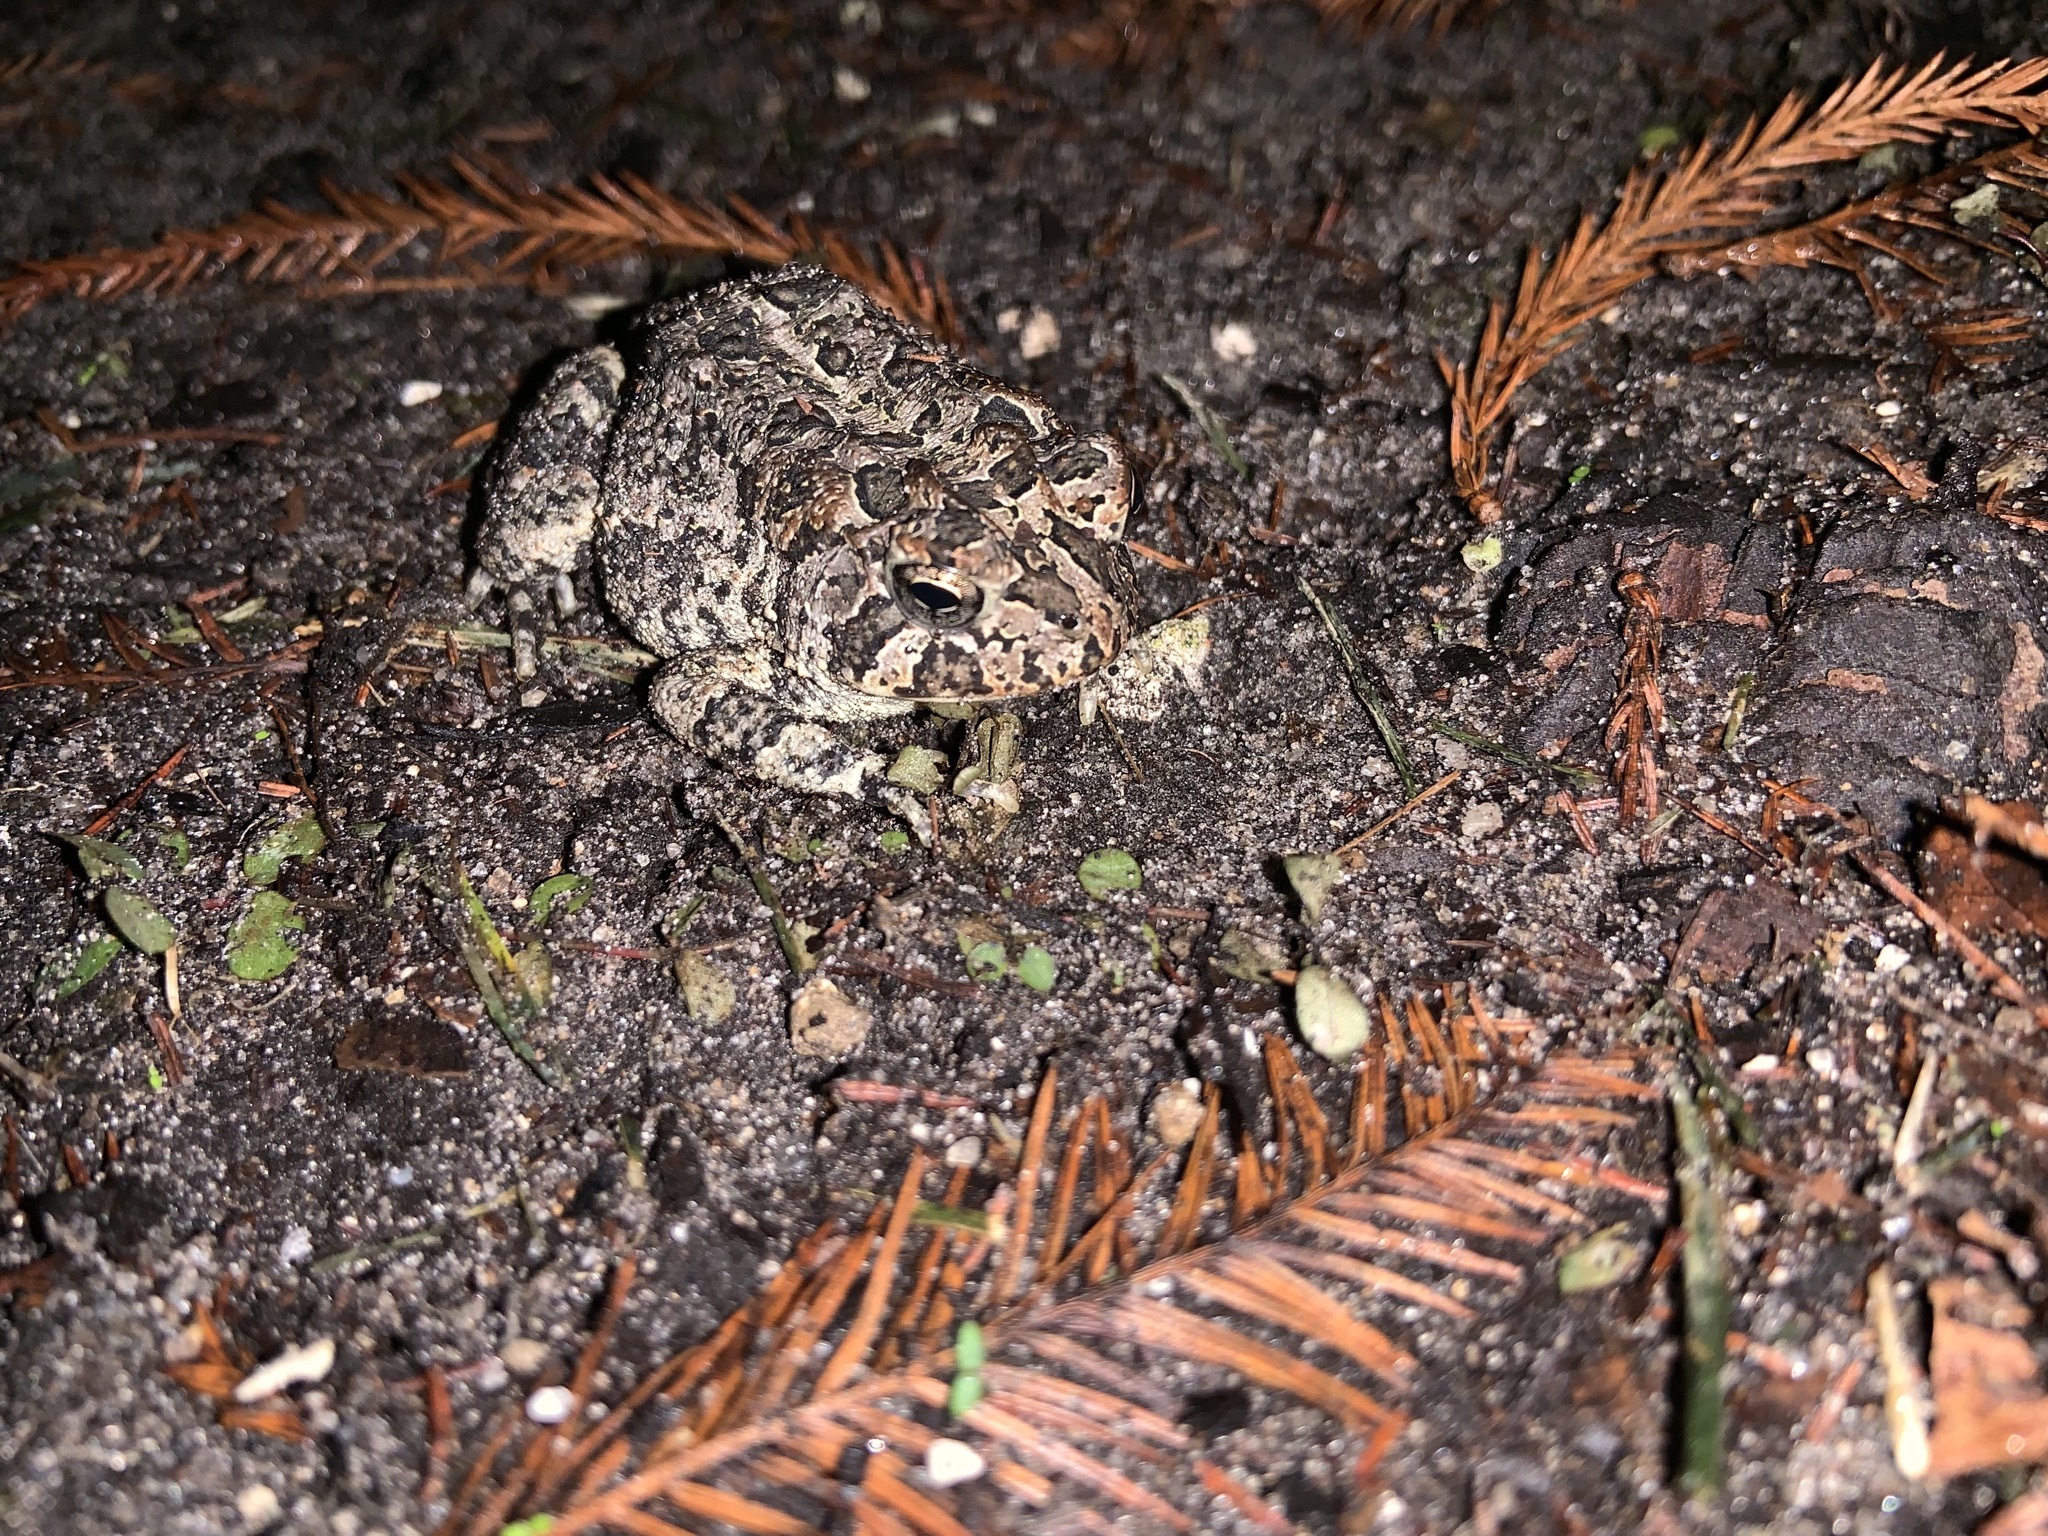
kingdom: Animalia
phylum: Chordata
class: Amphibia
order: Anura
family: Bufonidae
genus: Anaxyrus
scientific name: Anaxyrus terrestris
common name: Southern toad
